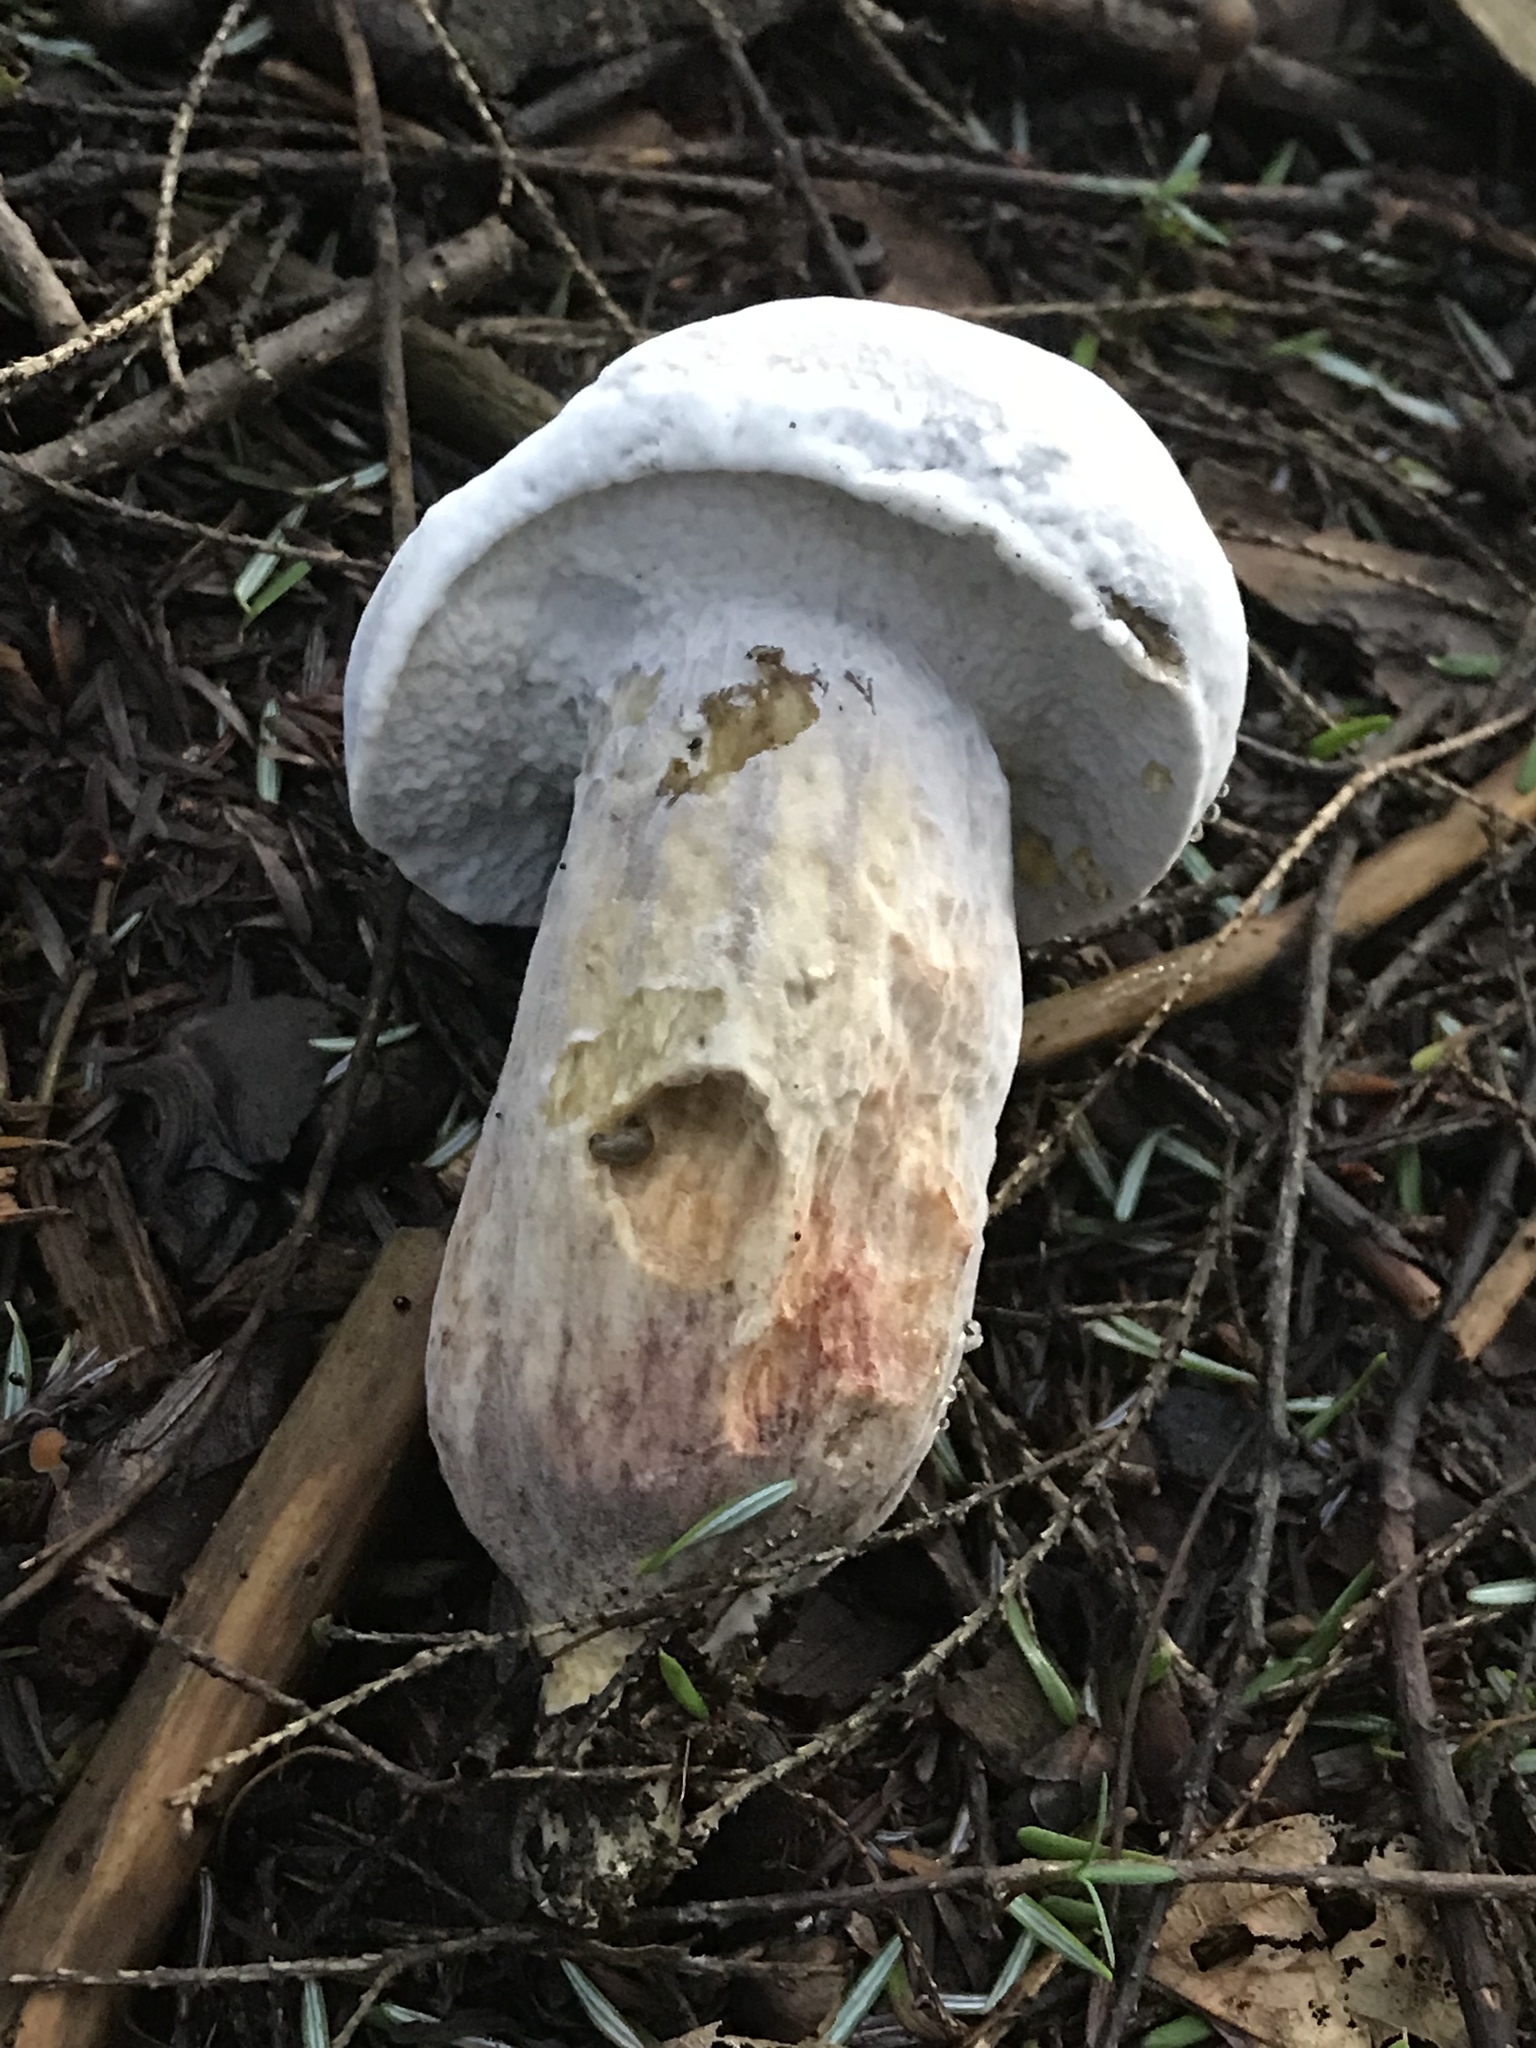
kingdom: Fungi
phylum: Ascomycota
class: Sordariomycetes
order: Hypocreales
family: Hypocreaceae
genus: Hypomyces
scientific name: Hypomyces chrysospermus
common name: Bolete mould
